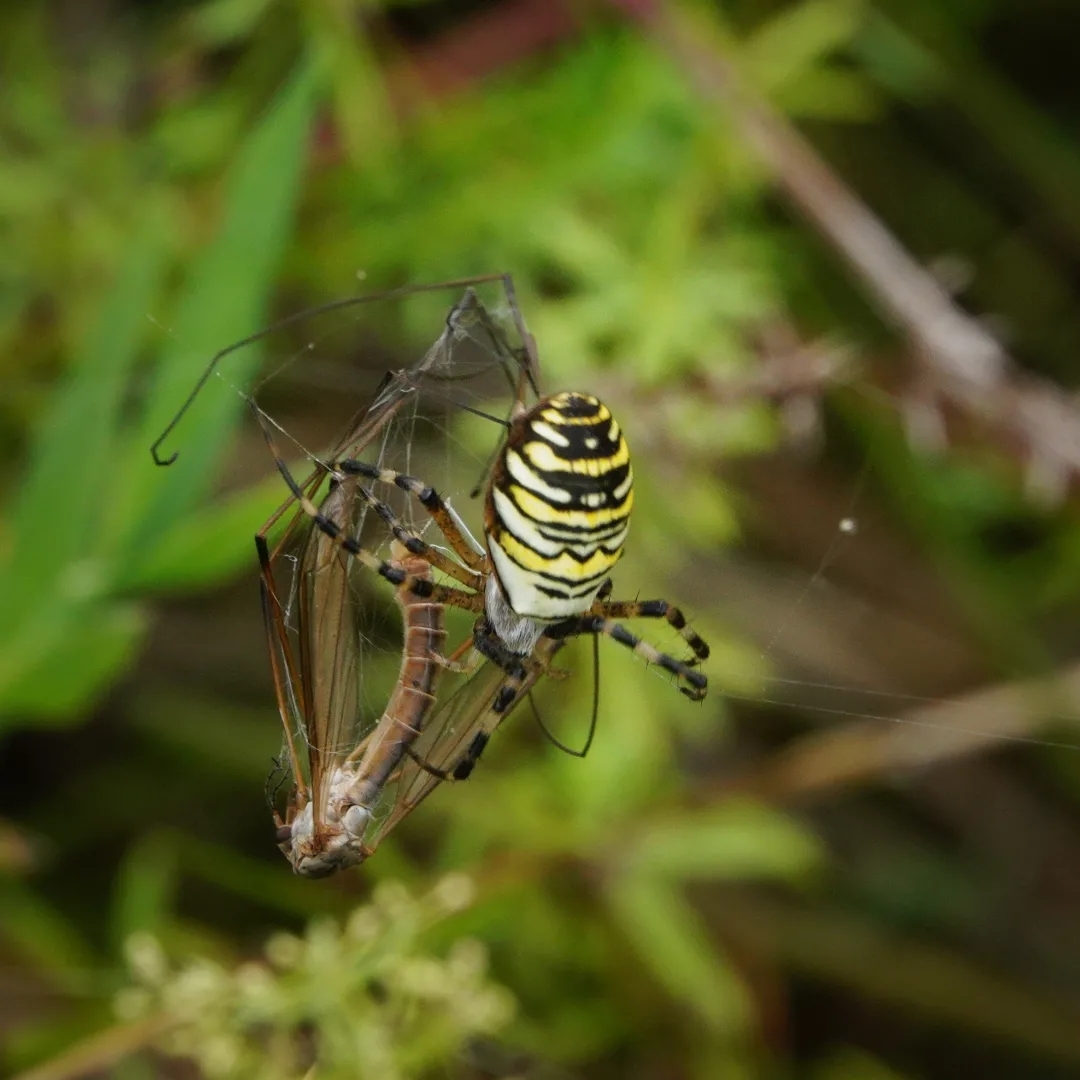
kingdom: Animalia
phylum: Arthropoda
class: Arachnida
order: Araneae
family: Araneidae
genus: Argiope
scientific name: Argiope bruennichi
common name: Wasp spider
